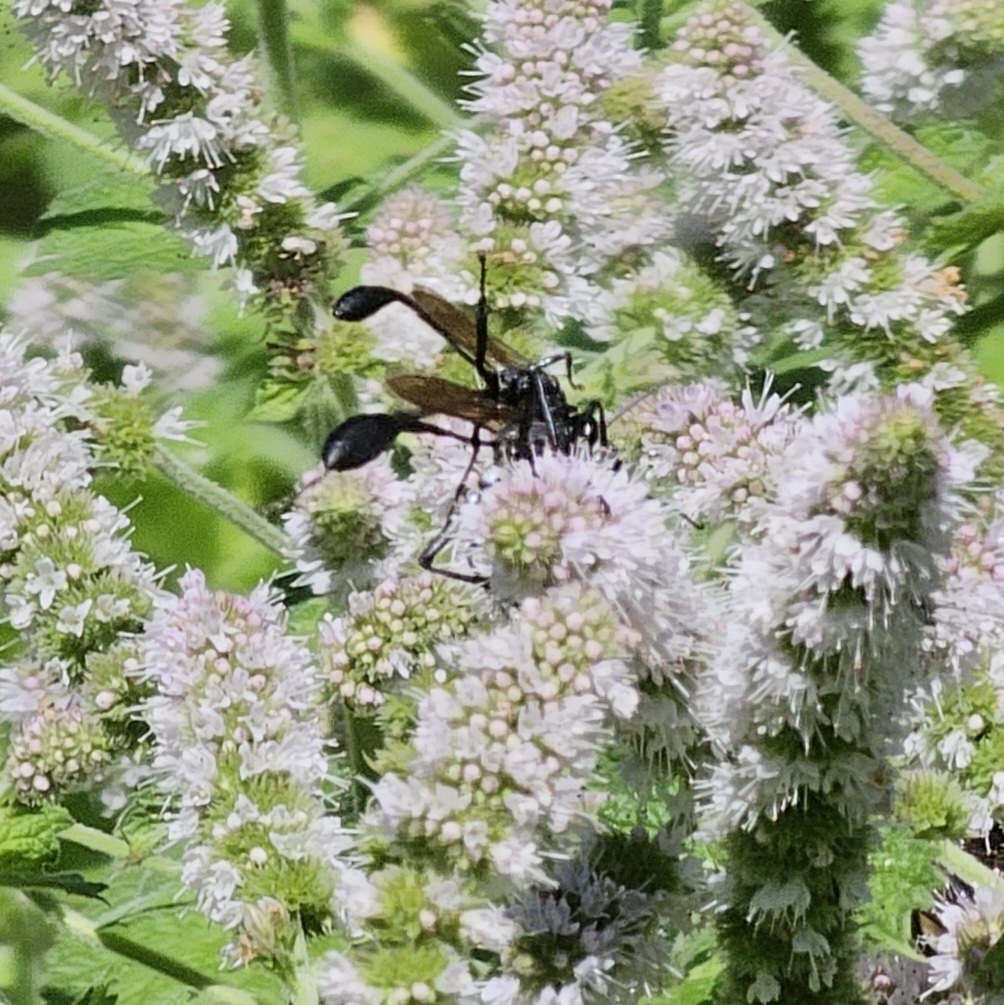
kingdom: Animalia
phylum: Arthropoda
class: Insecta
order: Hymenoptera
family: Sphecidae
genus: Eremnophila
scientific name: Eremnophila aureonotata
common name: Gold-marked thread-waisted wasp
